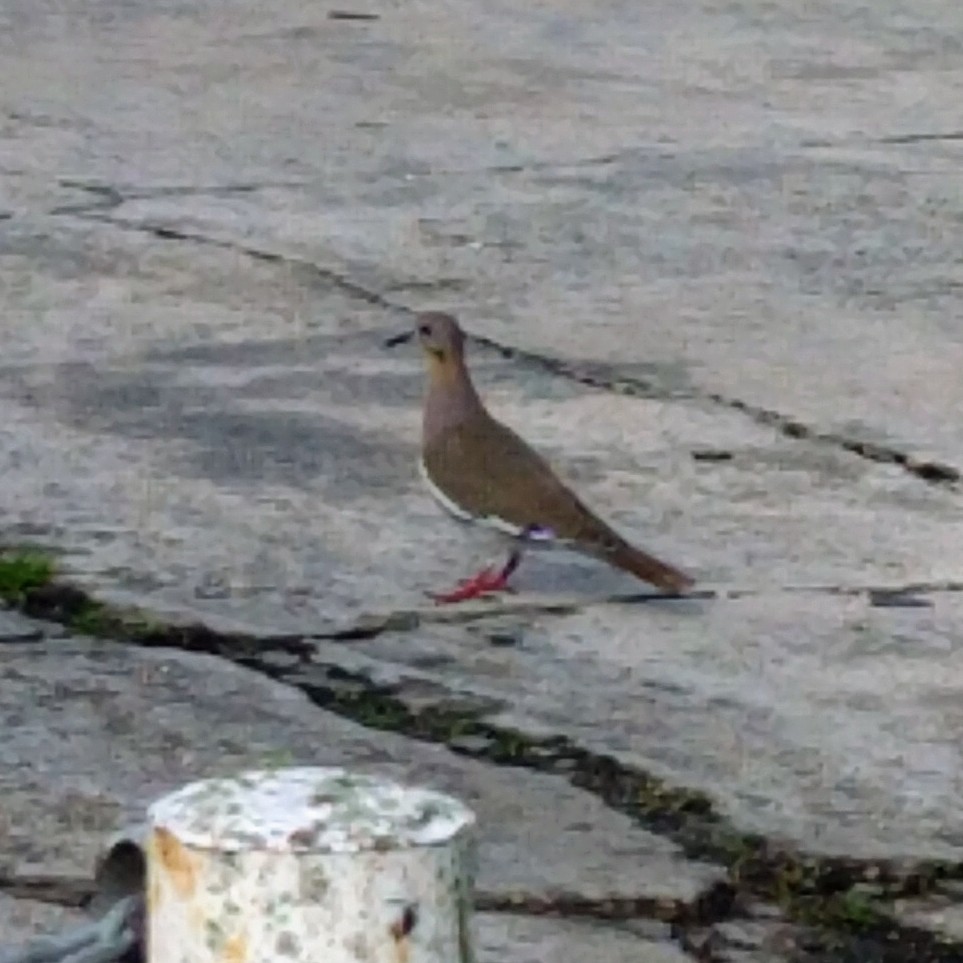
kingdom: Animalia
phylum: Chordata
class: Aves
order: Columbiformes
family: Columbidae
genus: Zenaida
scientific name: Zenaida asiatica
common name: White-winged dove
